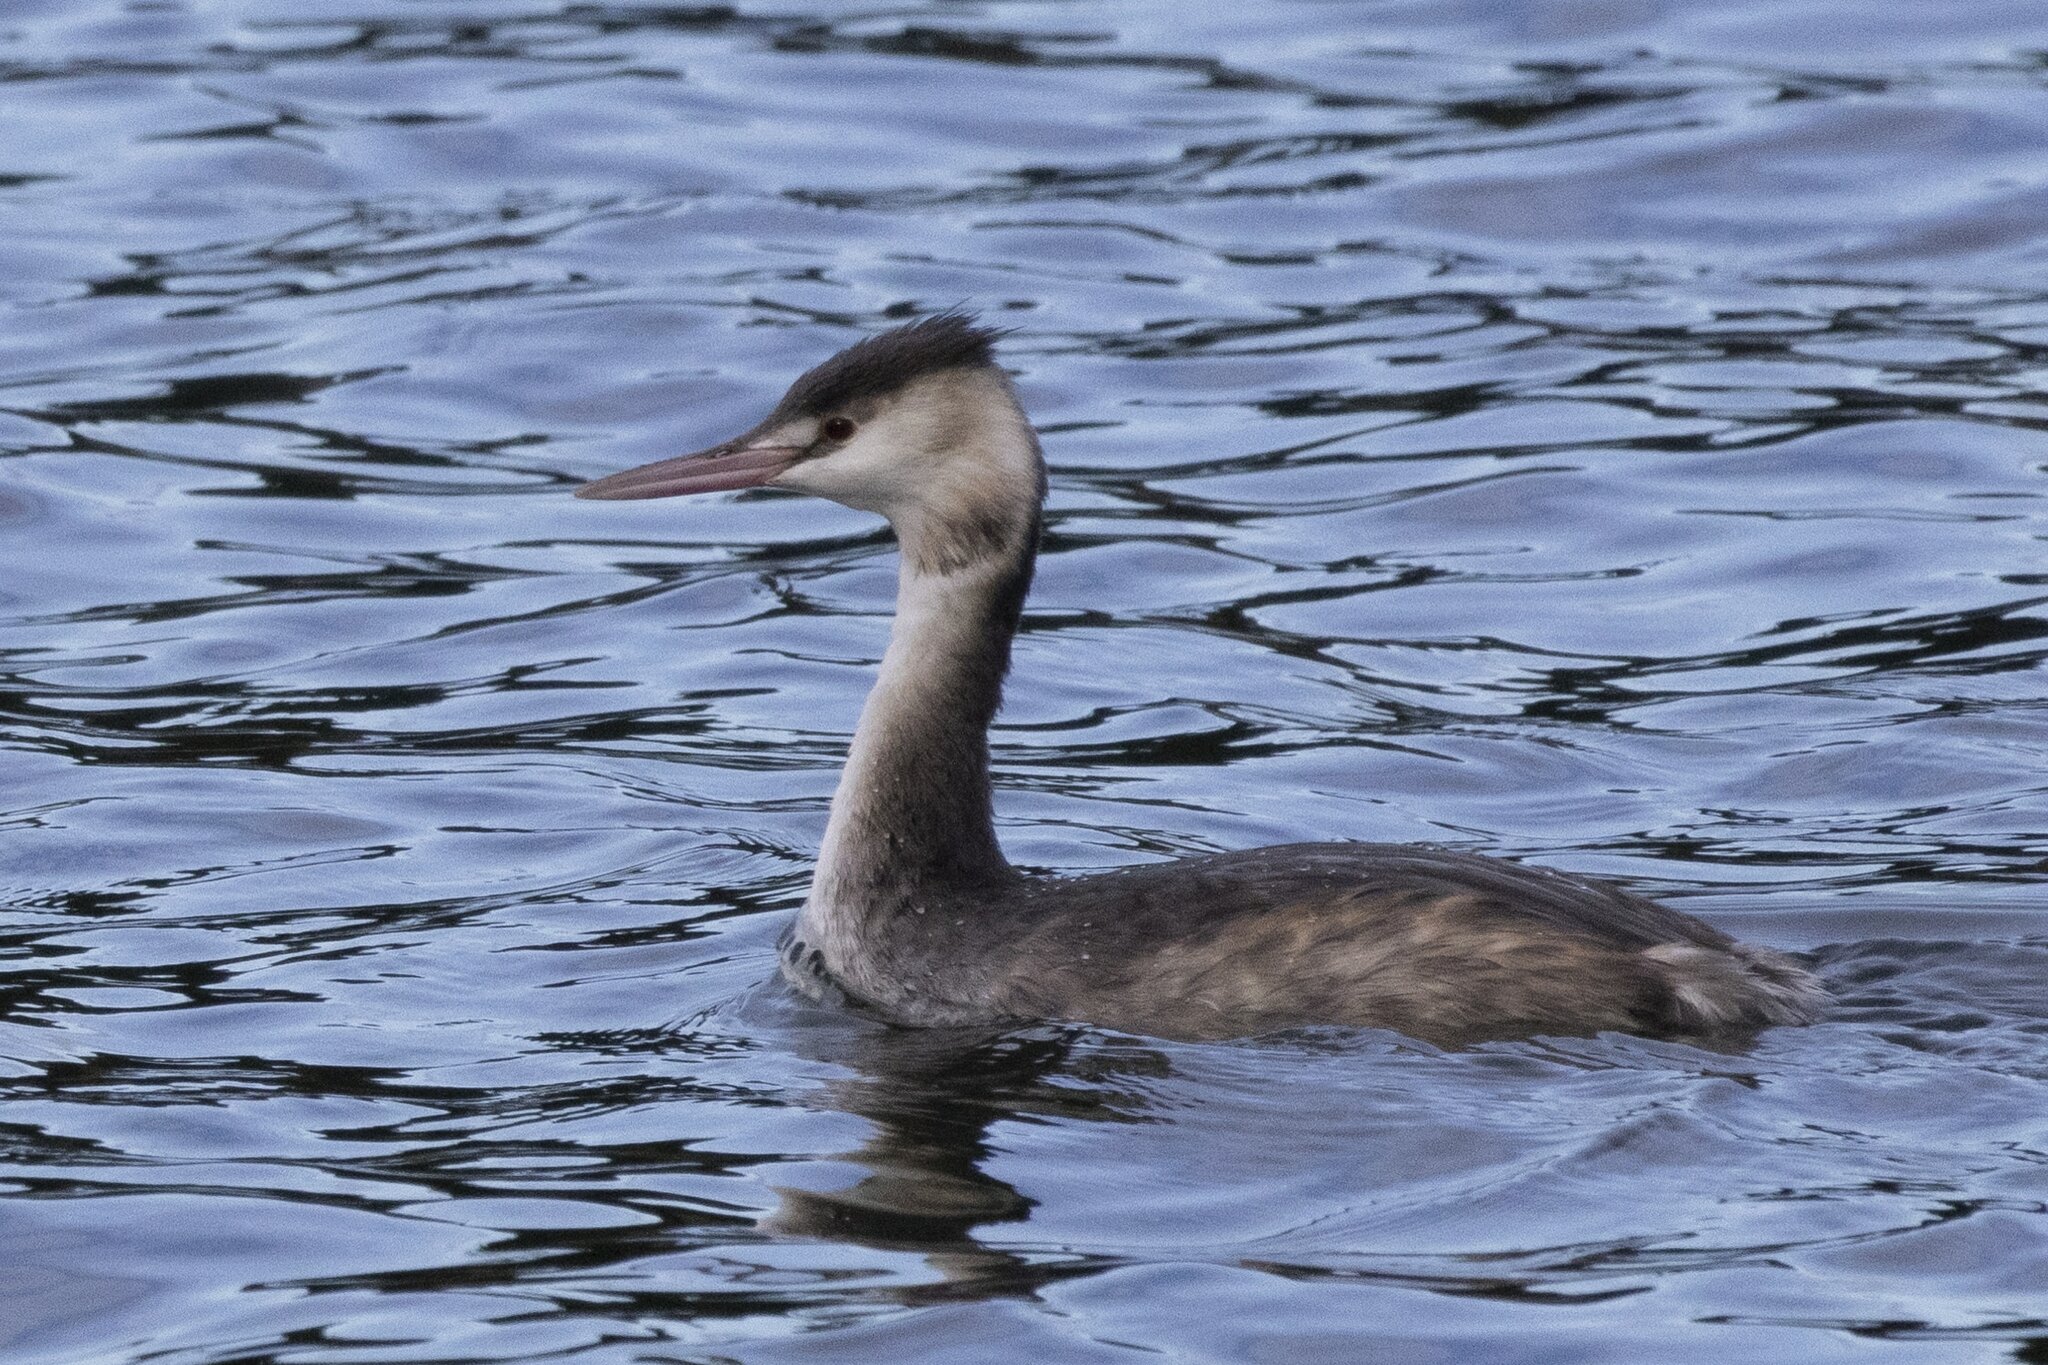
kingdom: Animalia
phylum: Chordata
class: Aves
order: Podicipediformes
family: Podicipedidae
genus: Podiceps
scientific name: Podiceps cristatus
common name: Great crested grebe
